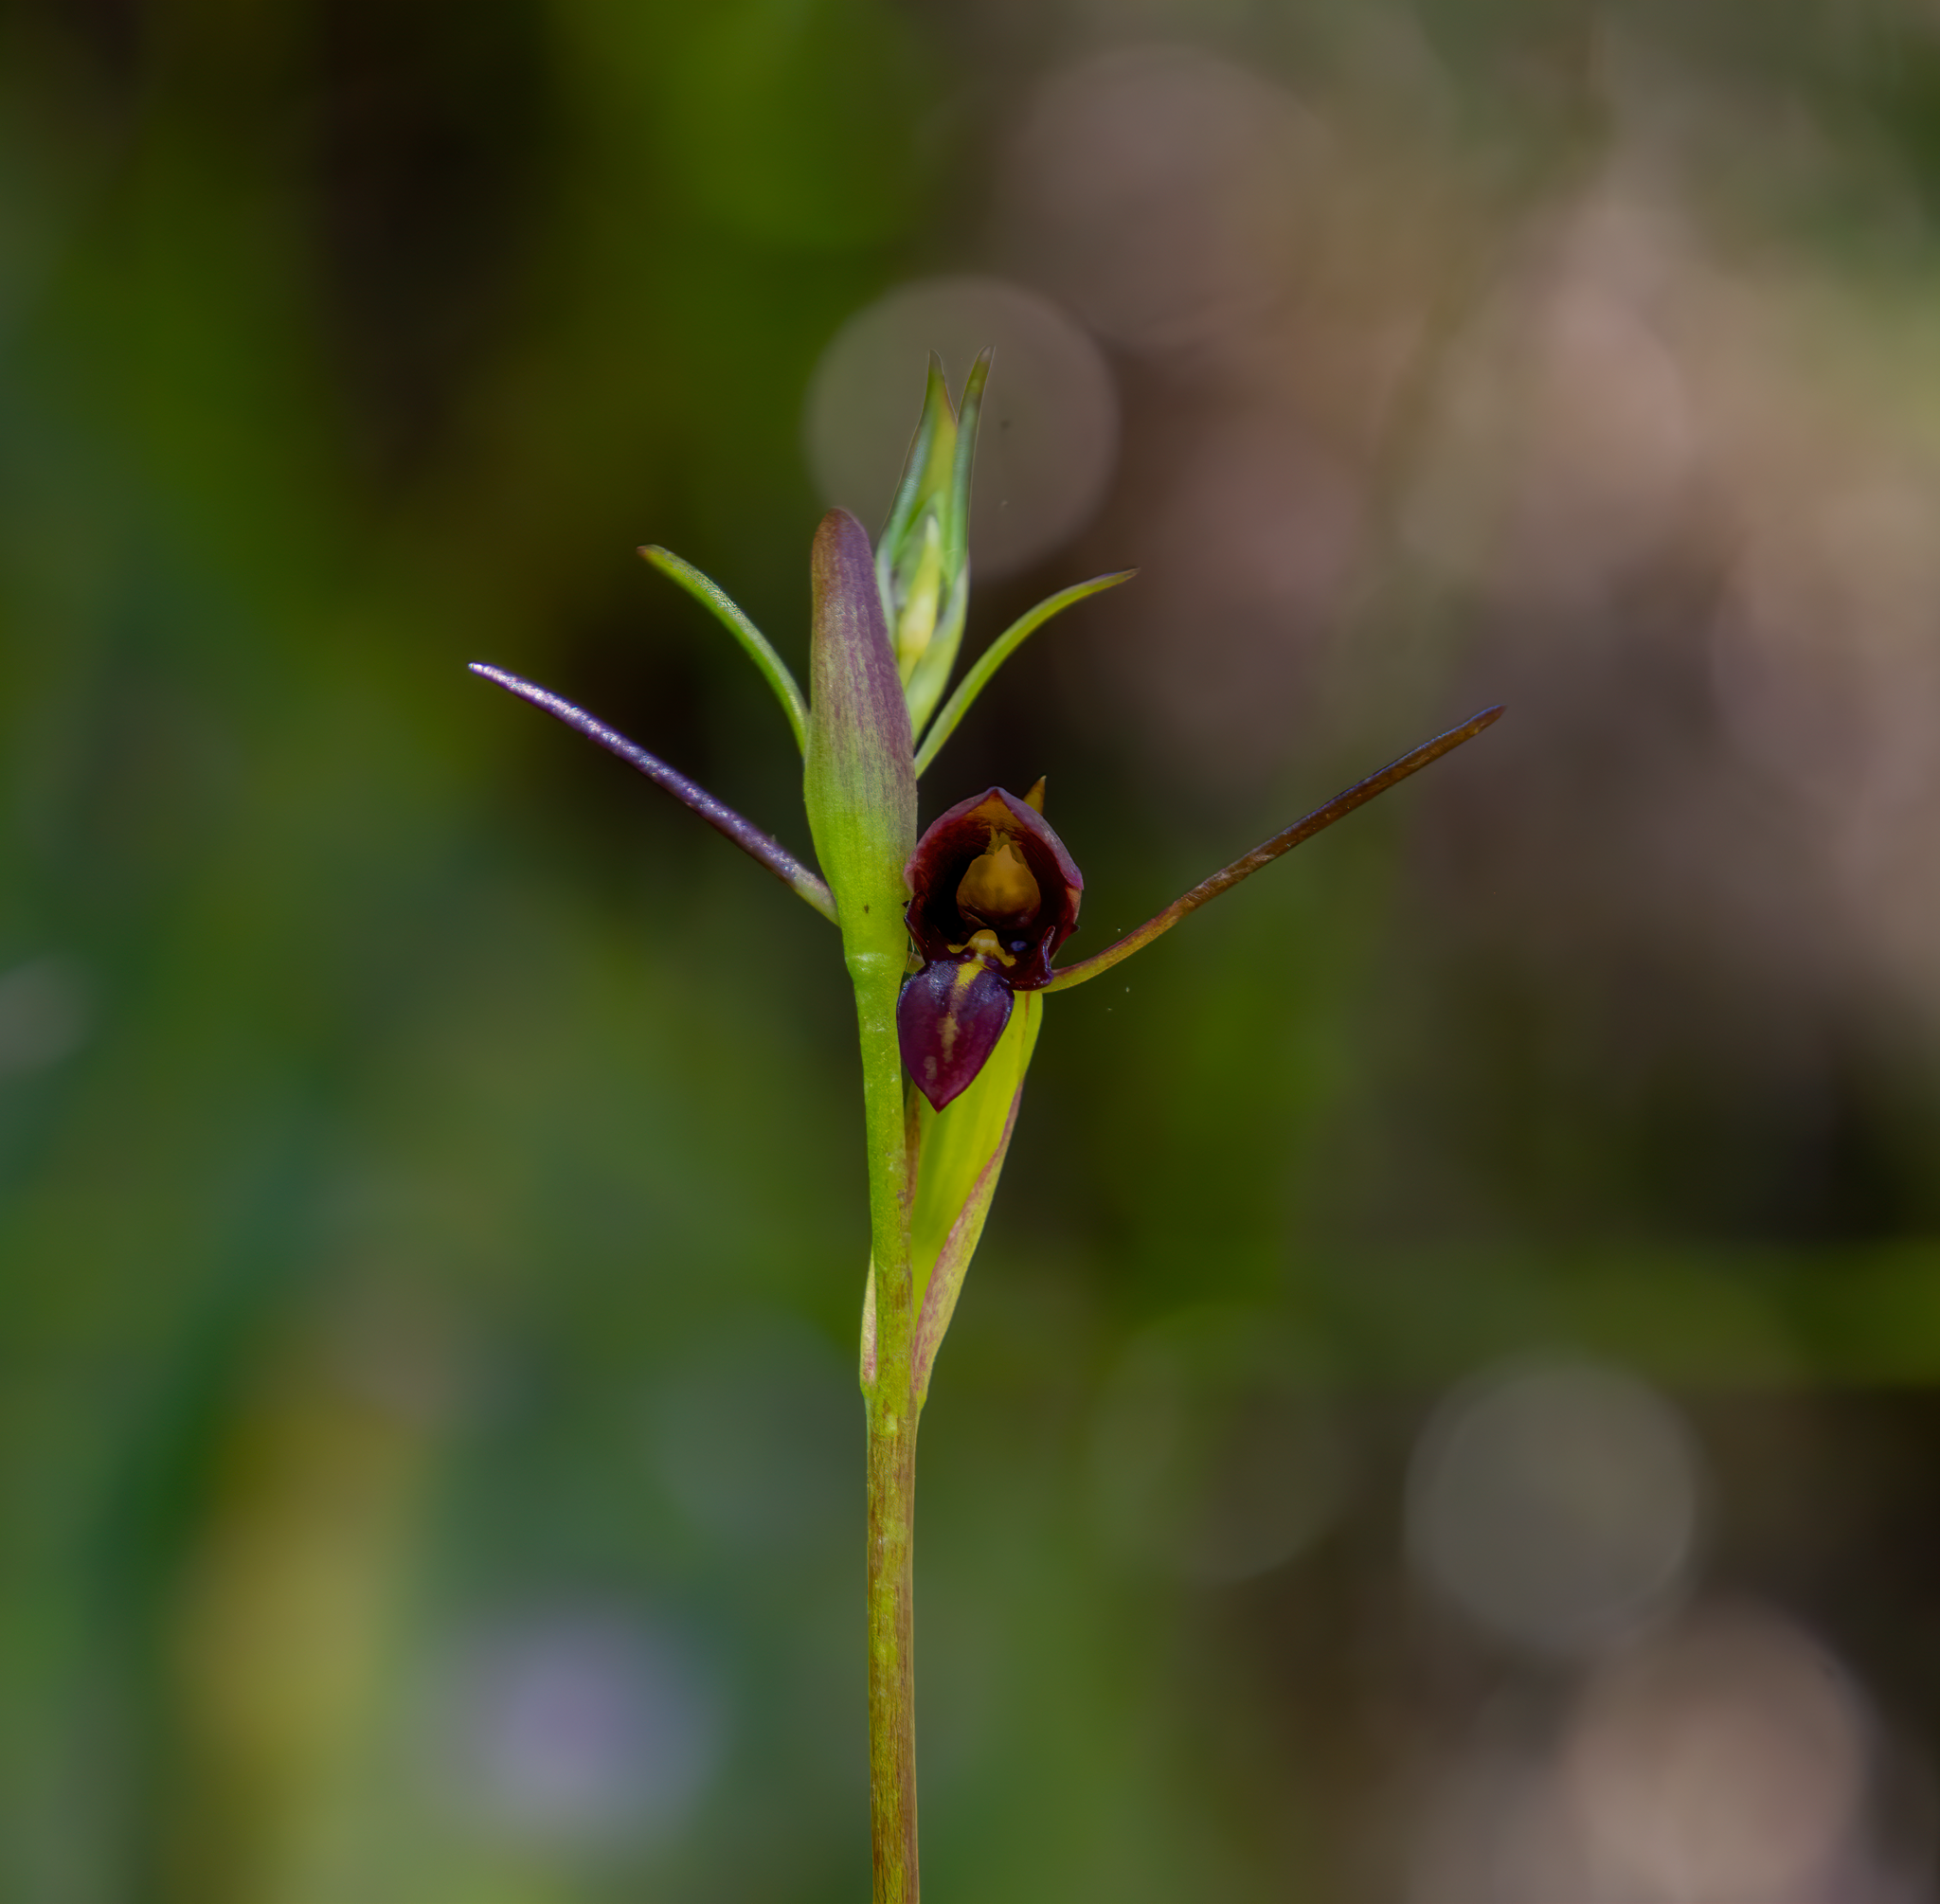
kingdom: Plantae
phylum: Tracheophyta
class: Liliopsida
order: Asparagales
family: Orchidaceae
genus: Orthoceras
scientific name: Orthoceras novae-zeelandiae
